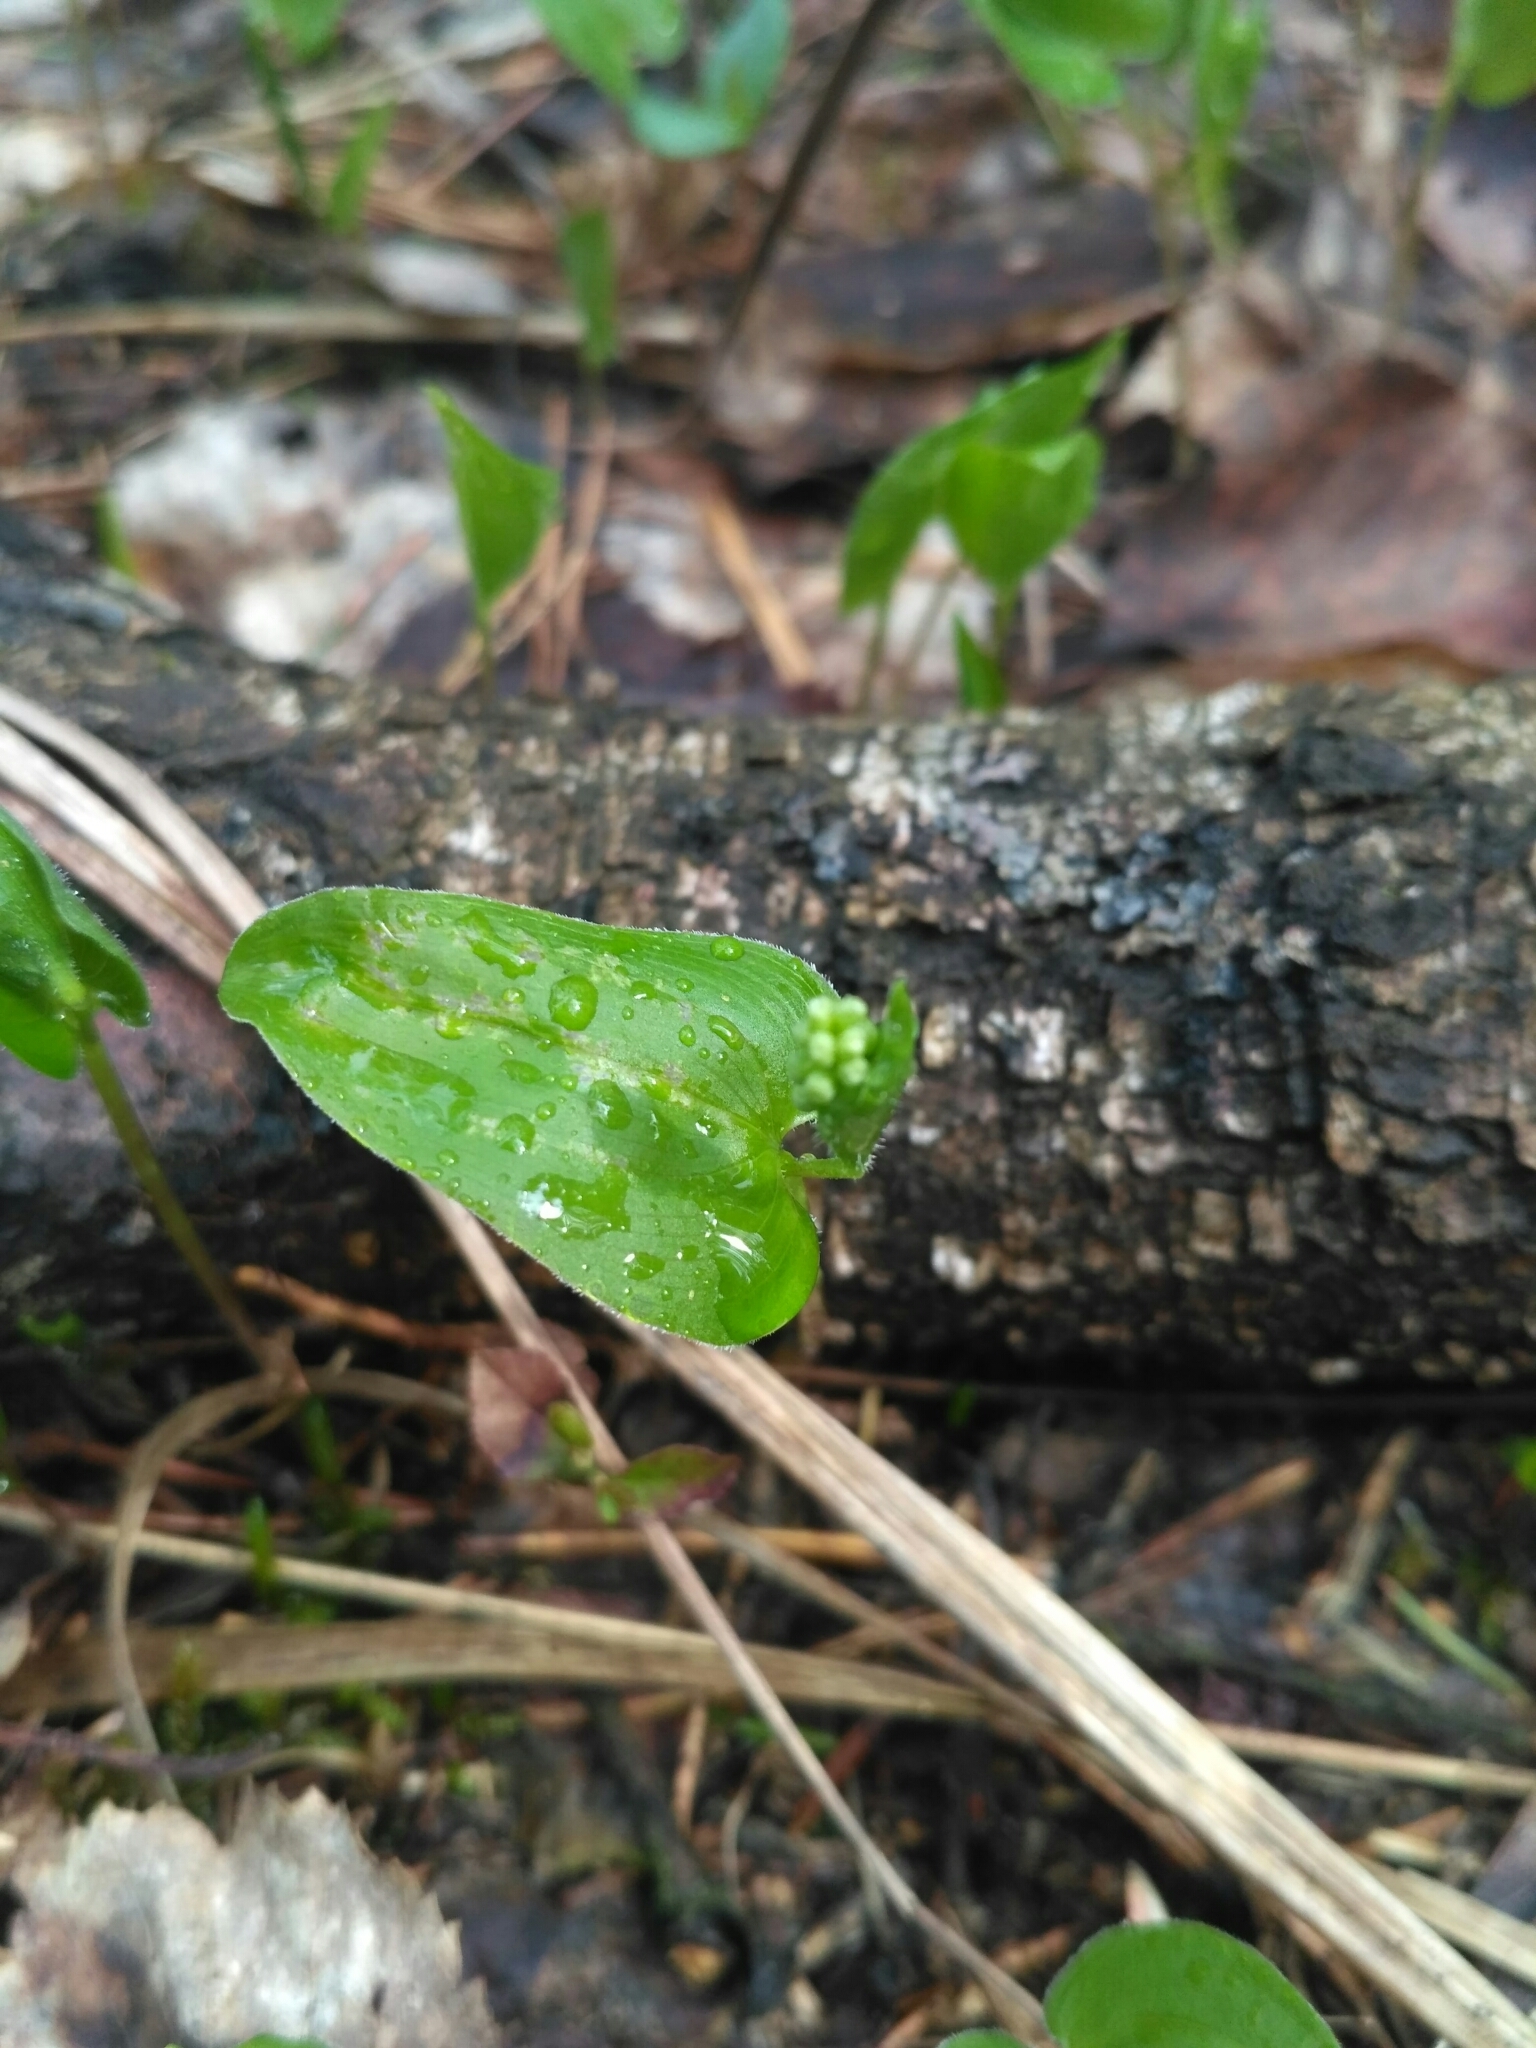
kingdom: Plantae
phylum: Tracheophyta
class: Liliopsida
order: Asparagales
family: Asparagaceae
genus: Maianthemum
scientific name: Maianthemum bifolium
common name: May lily
